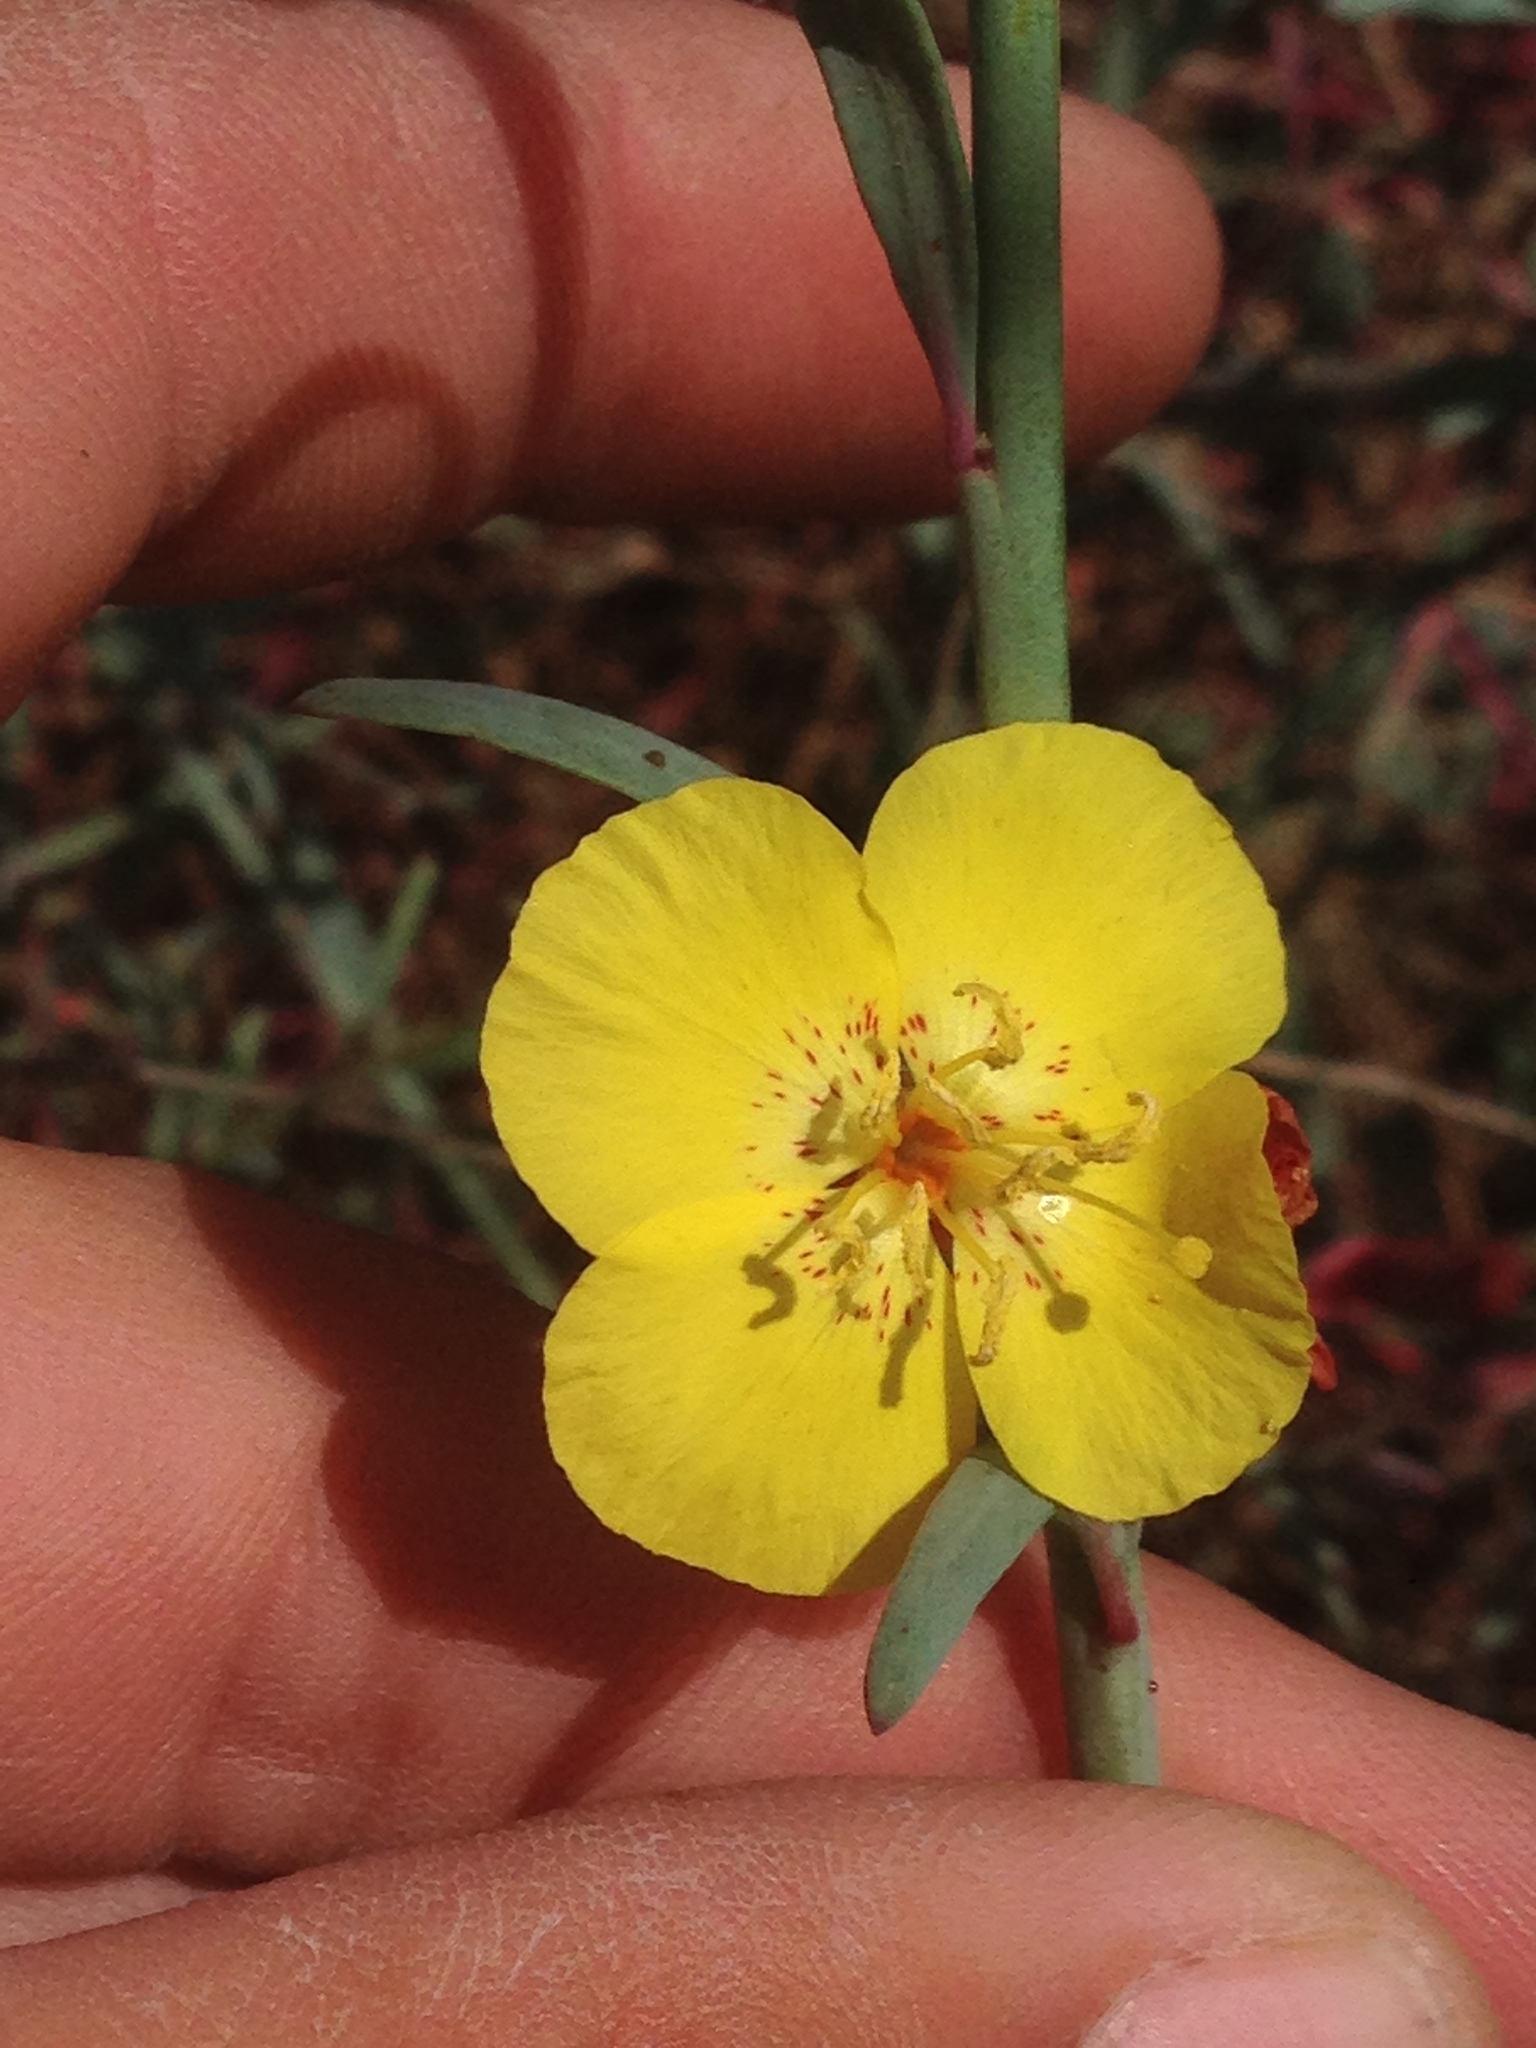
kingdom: Plantae
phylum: Tracheophyta
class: Magnoliopsida
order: Myrtales
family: Onagraceae
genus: Eulobus
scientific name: Eulobus crassifolius
